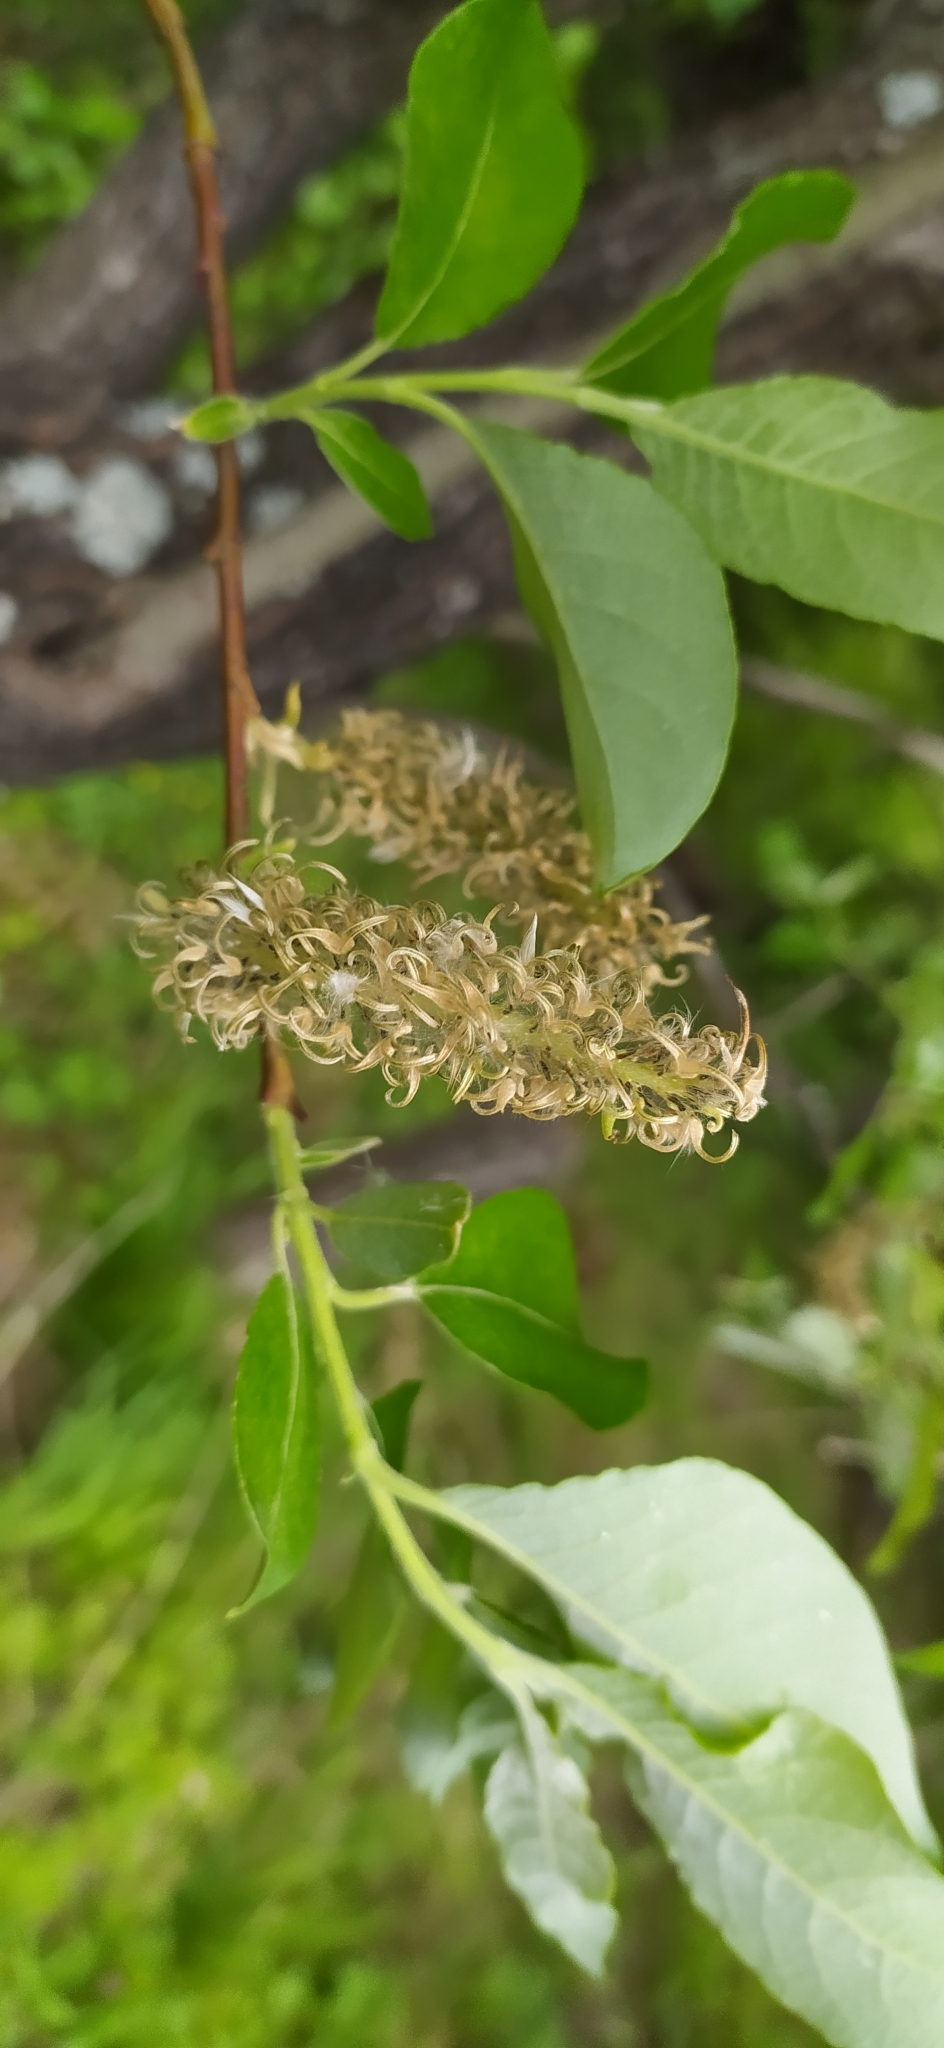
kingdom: Plantae
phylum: Tracheophyta
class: Magnoliopsida
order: Malpighiales
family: Salicaceae
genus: Salix
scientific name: Salix caprea
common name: Goat willow
